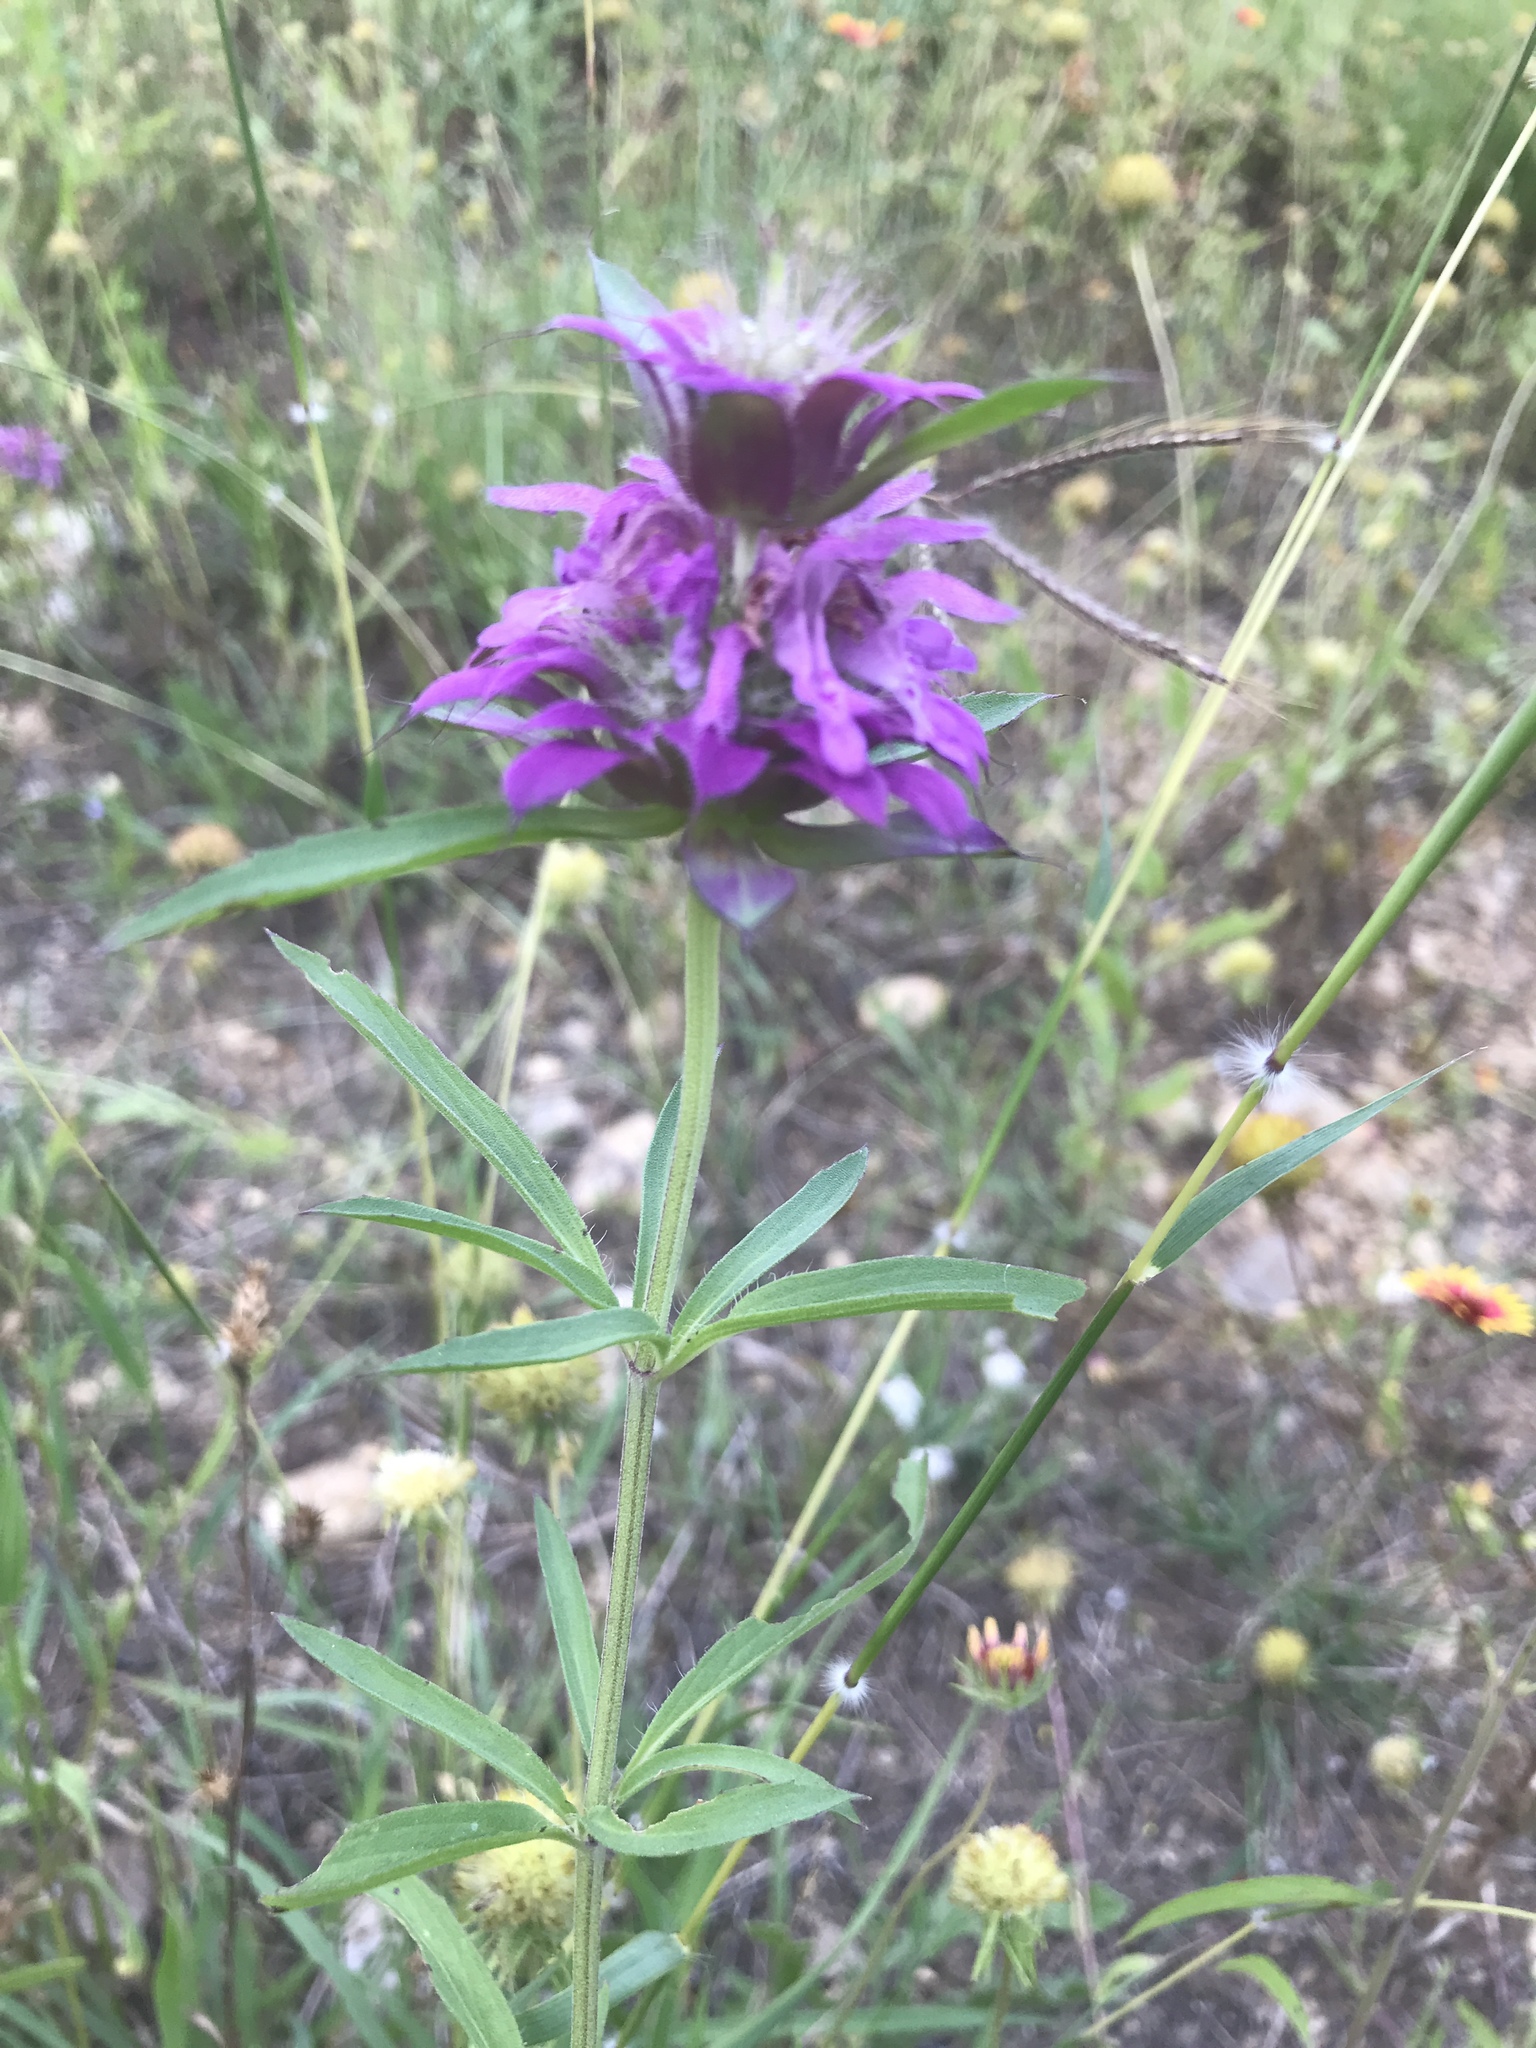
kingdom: Plantae
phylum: Tracheophyta
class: Magnoliopsida
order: Lamiales
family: Lamiaceae
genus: Monarda
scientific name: Monarda citriodora
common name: Lemon beebalm
